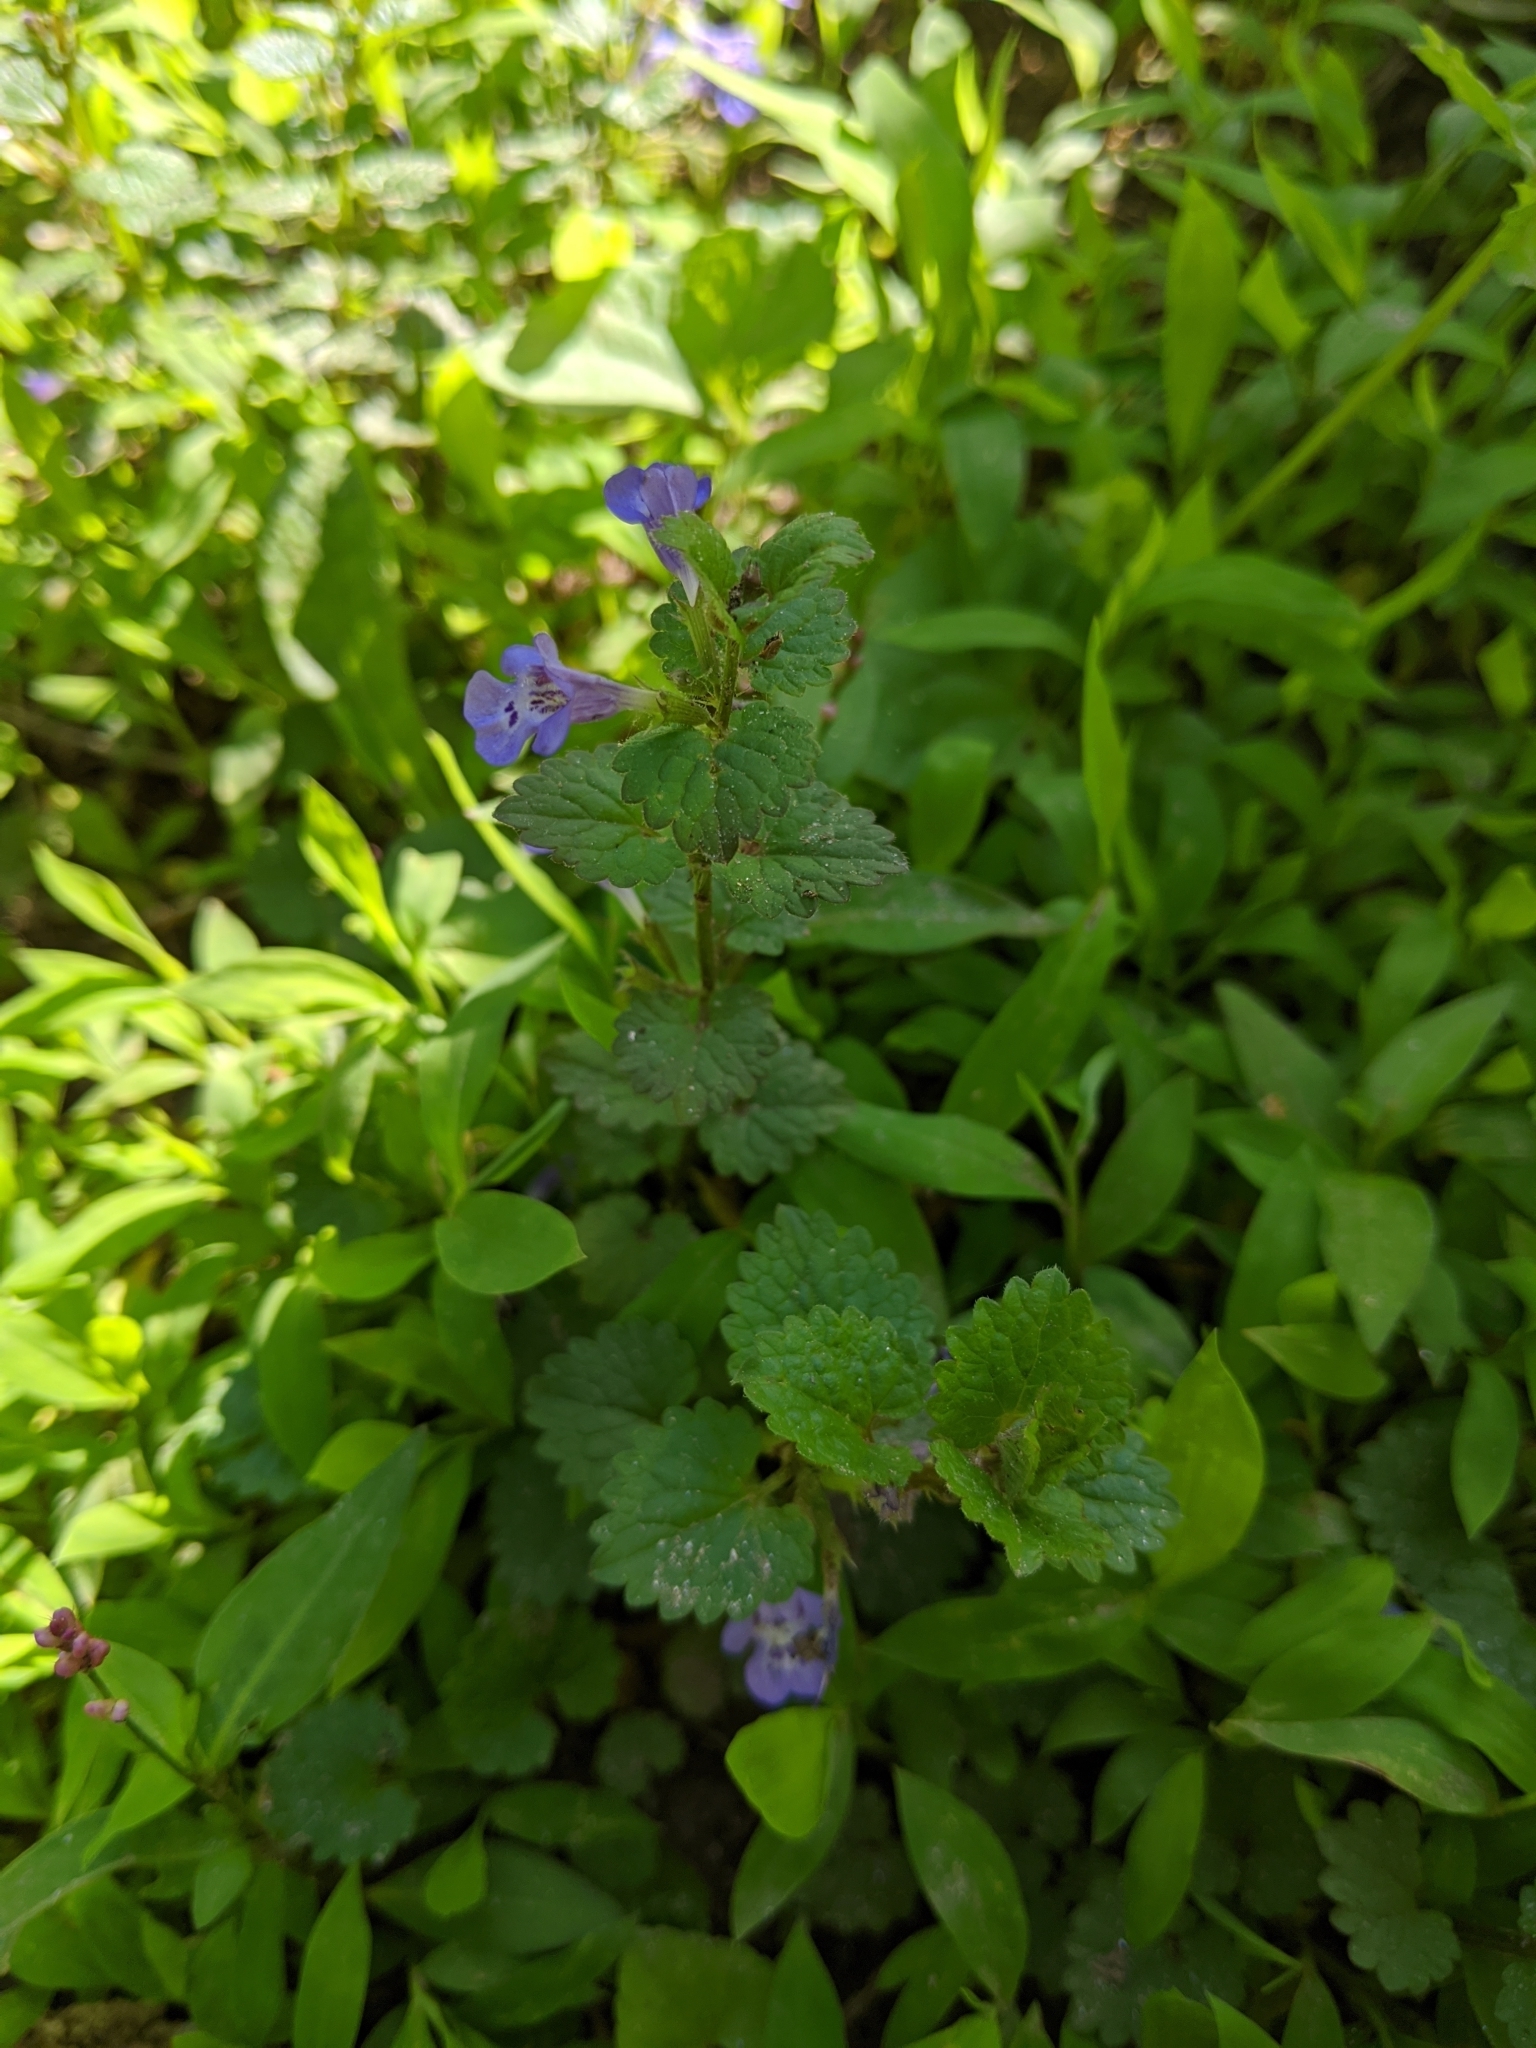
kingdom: Plantae
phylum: Tracheophyta
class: Magnoliopsida
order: Lamiales
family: Lamiaceae
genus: Glechoma
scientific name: Glechoma hederacea
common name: Ground ivy
